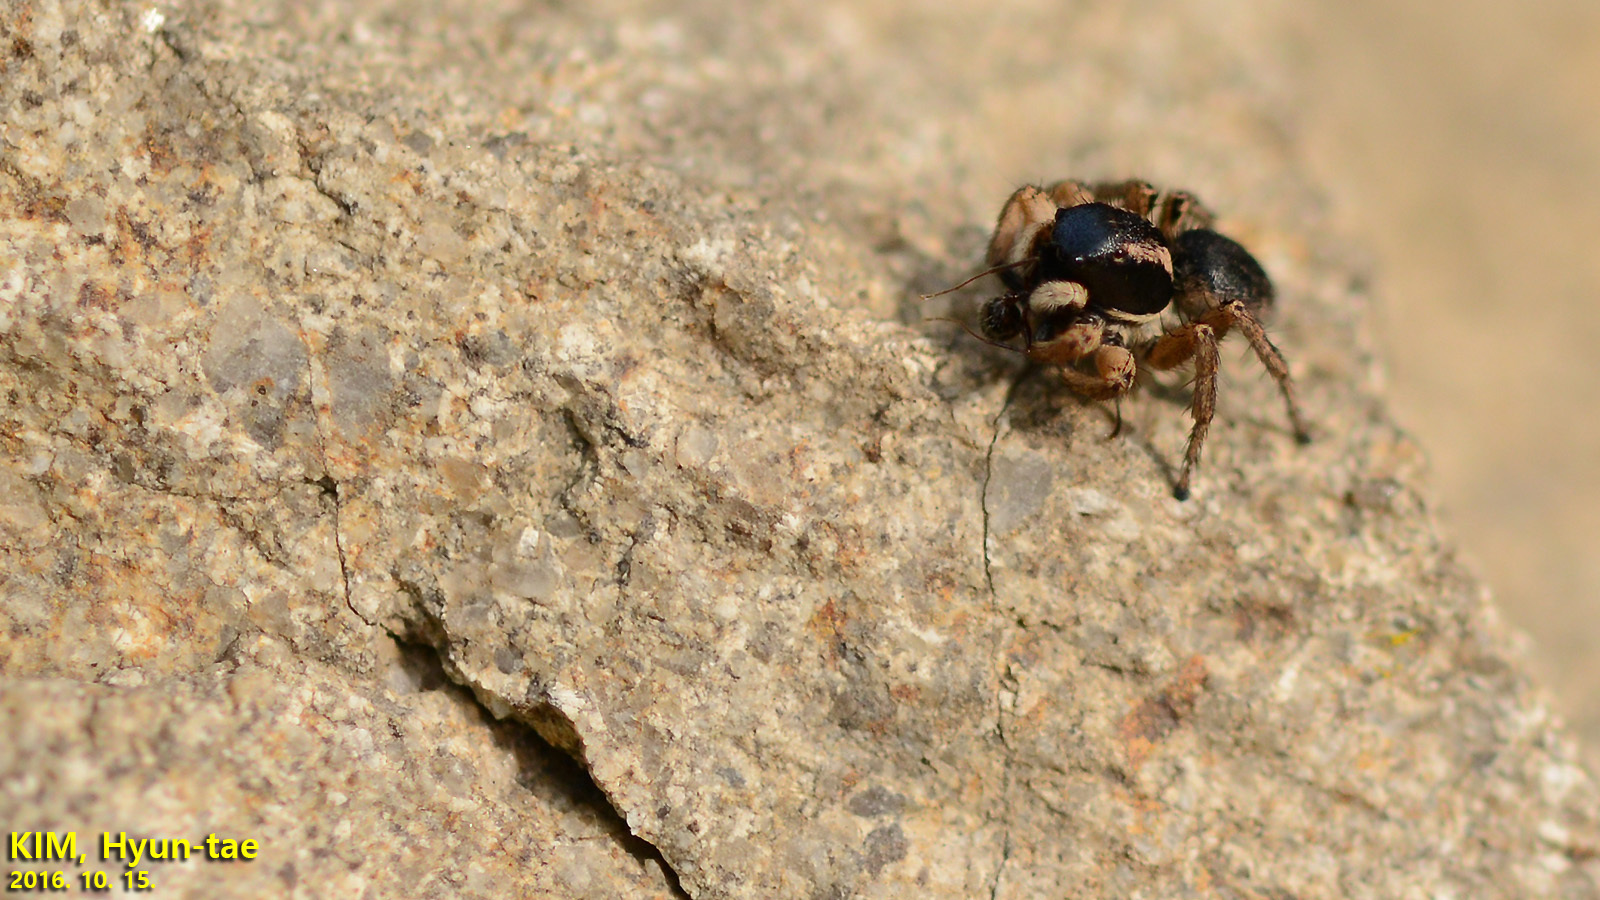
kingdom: Animalia
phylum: Arthropoda
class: Arachnida
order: Araneae
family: Salticidae
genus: Asianellus
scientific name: Asianellus festivus
